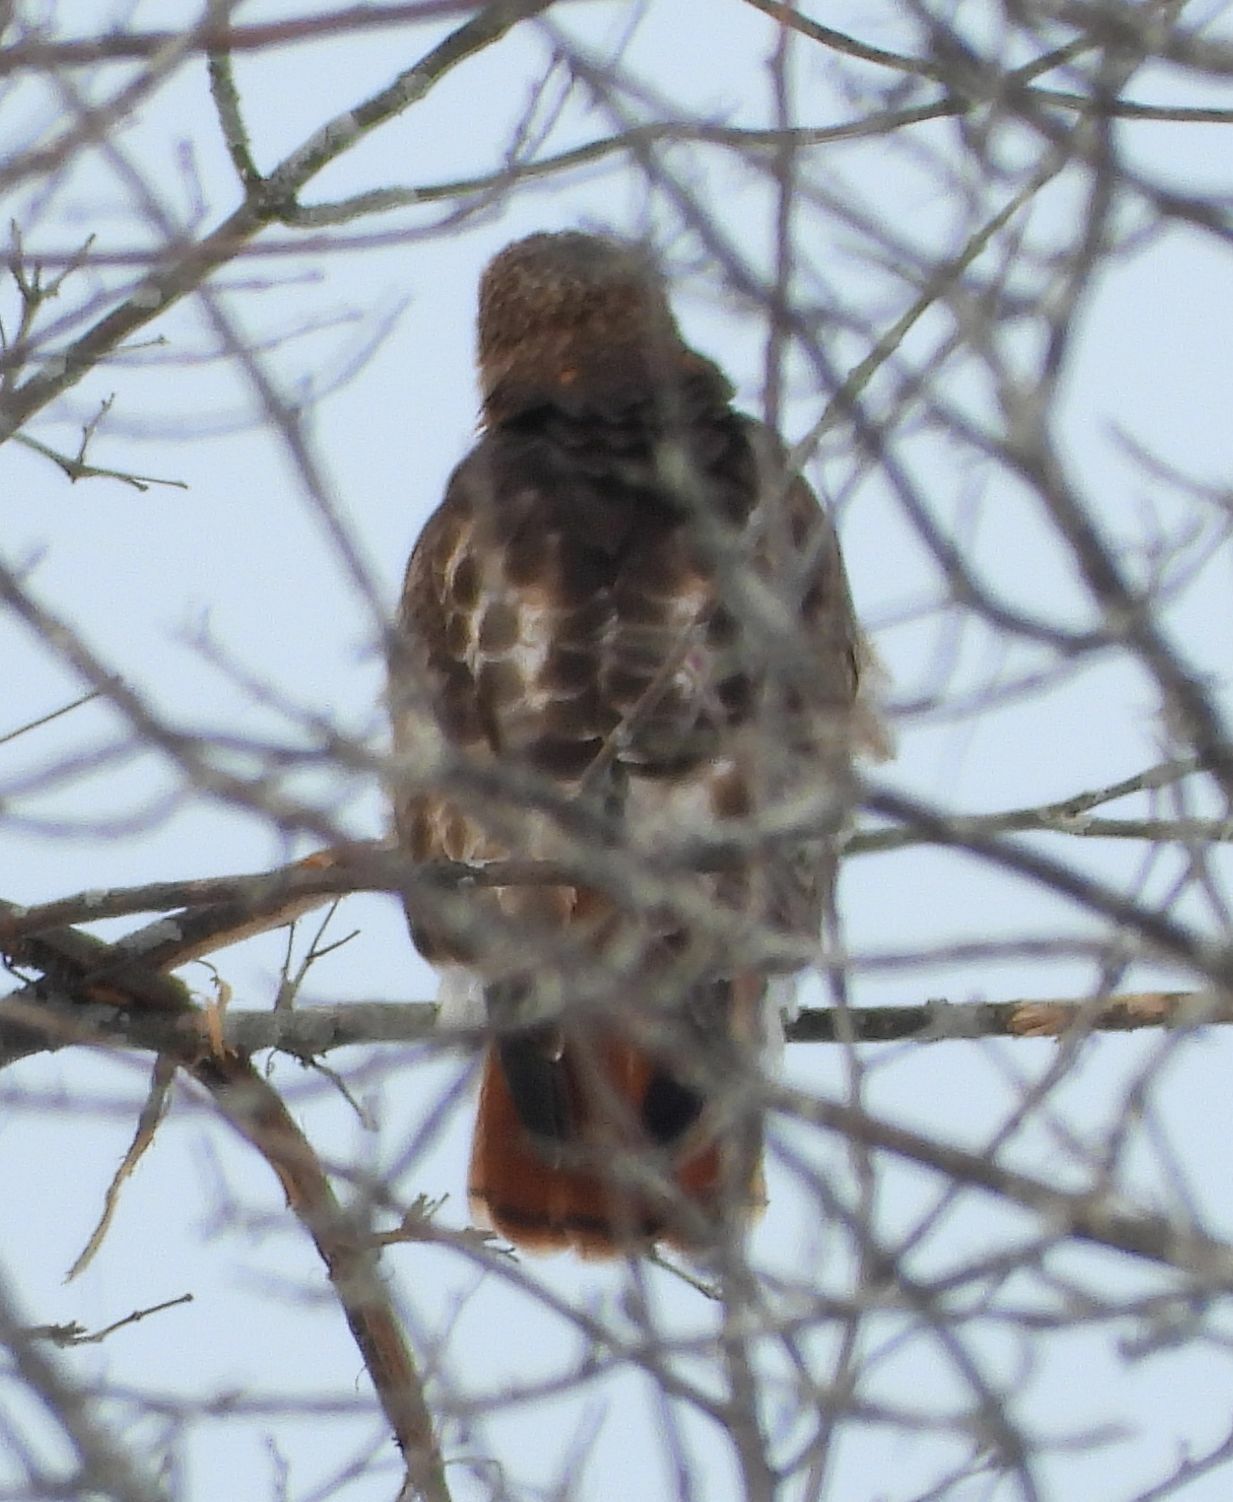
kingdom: Animalia
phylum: Chordata
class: Aves
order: Accipitriformes
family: Accipitridae
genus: Buteo
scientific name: Buteo jamaicensis
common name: Red-tailed hawk
